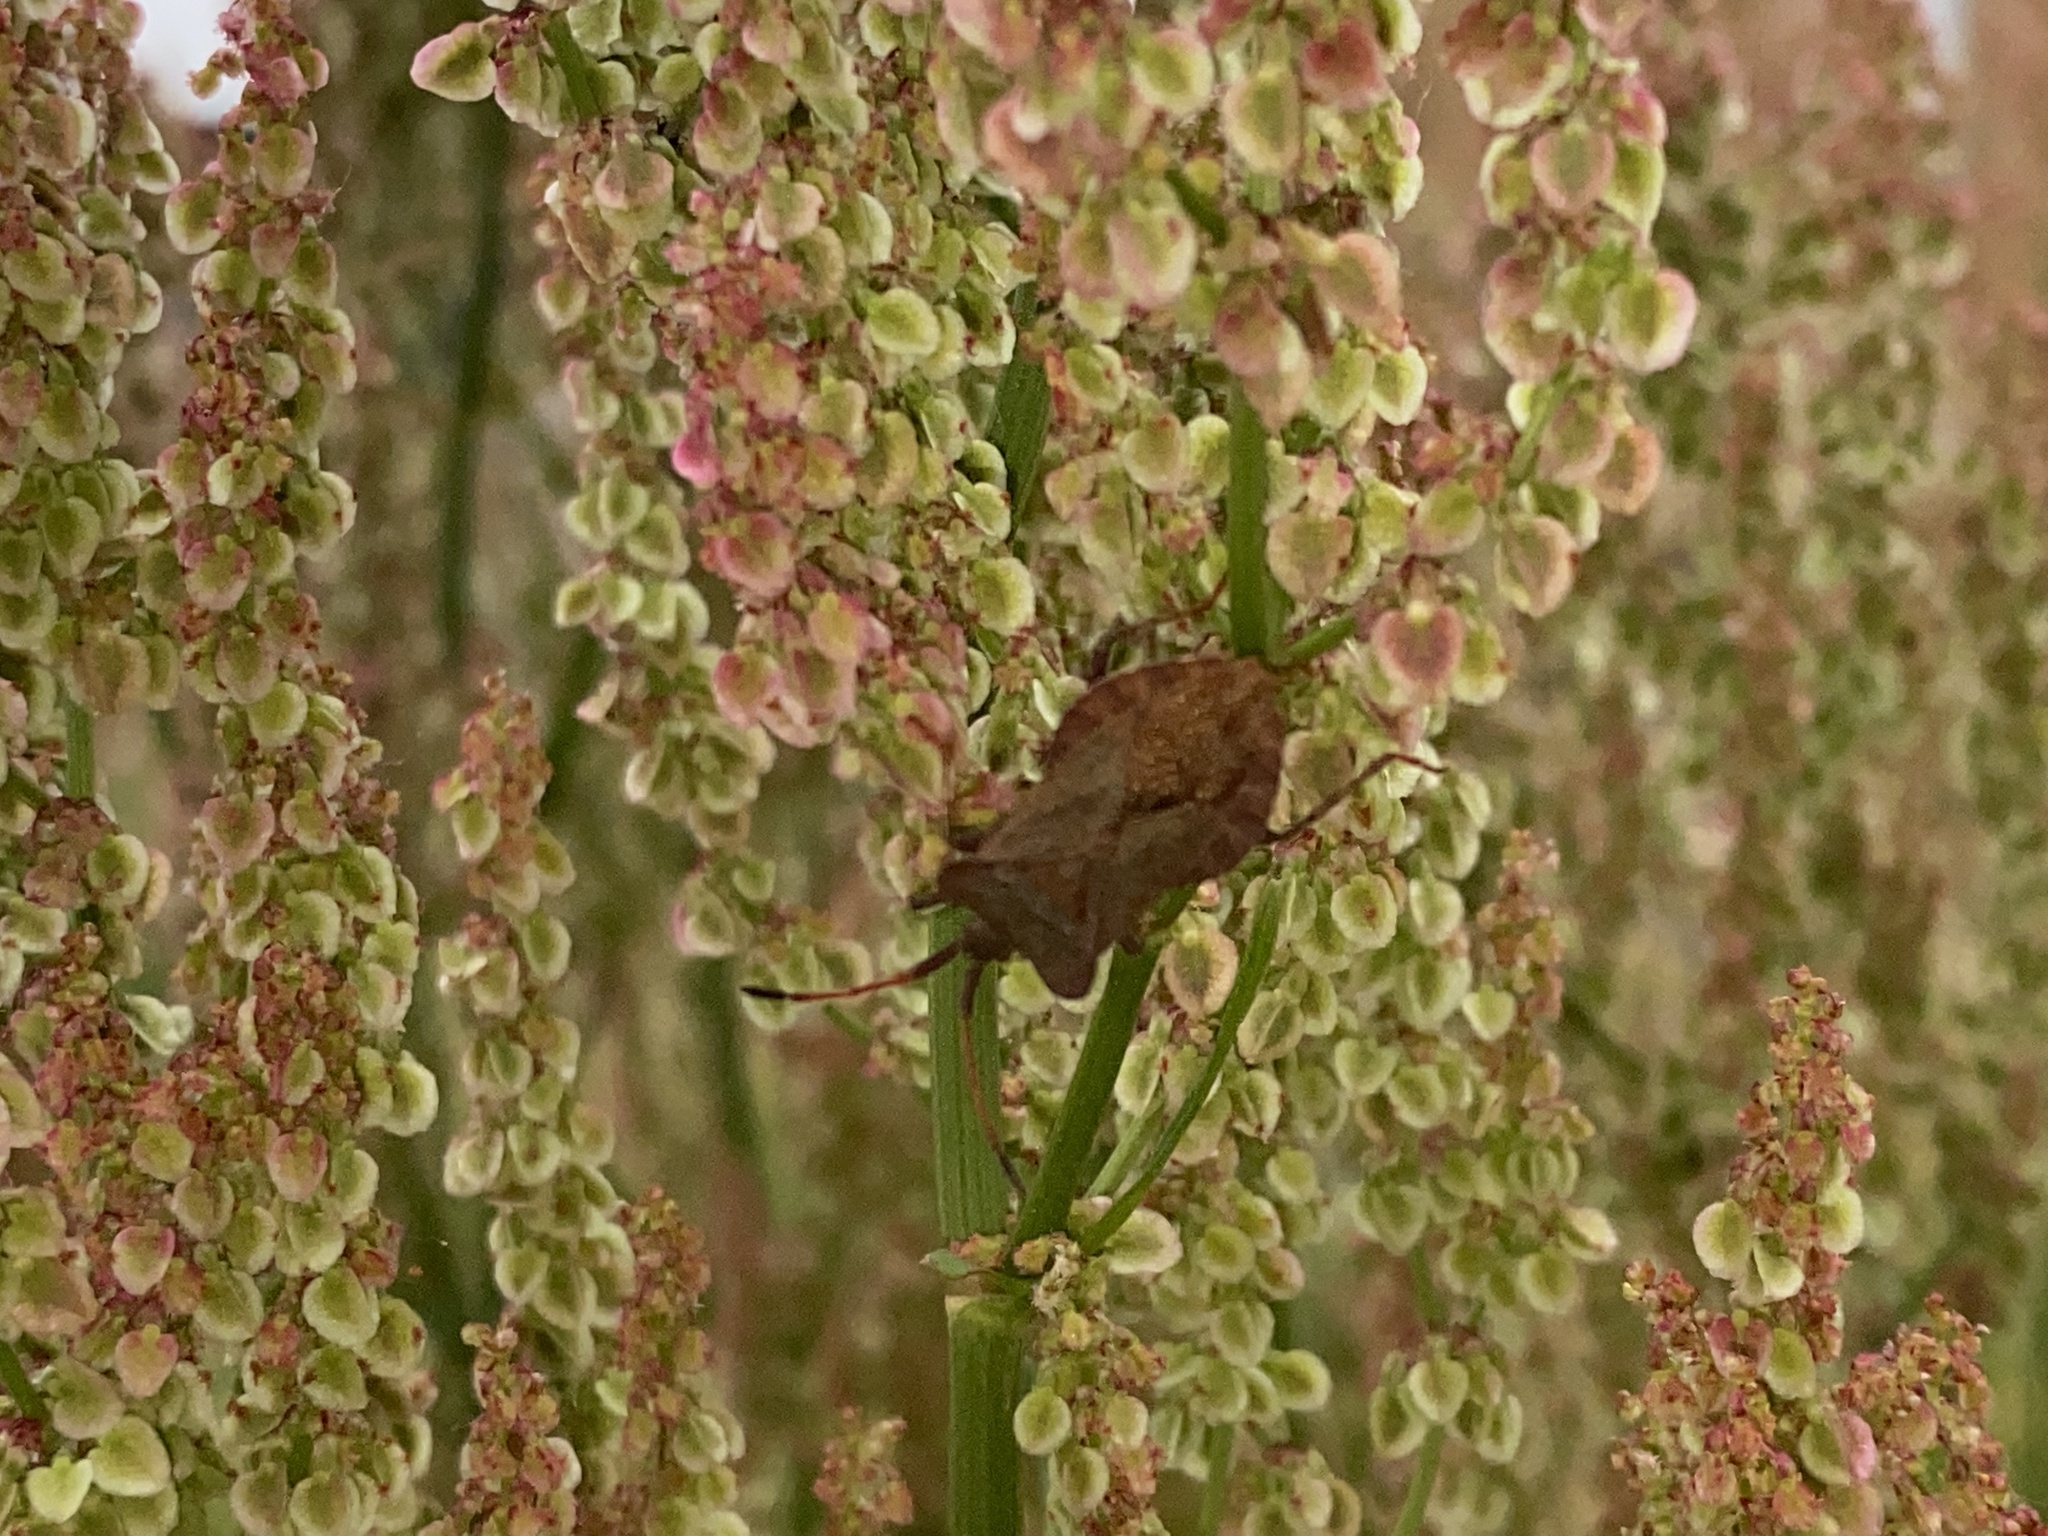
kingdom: Animalia
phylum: Arthropoda
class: Insecta
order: Hemiptera
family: Coreidae
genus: Coreus
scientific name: Coreus marginatus
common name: Dock bug
